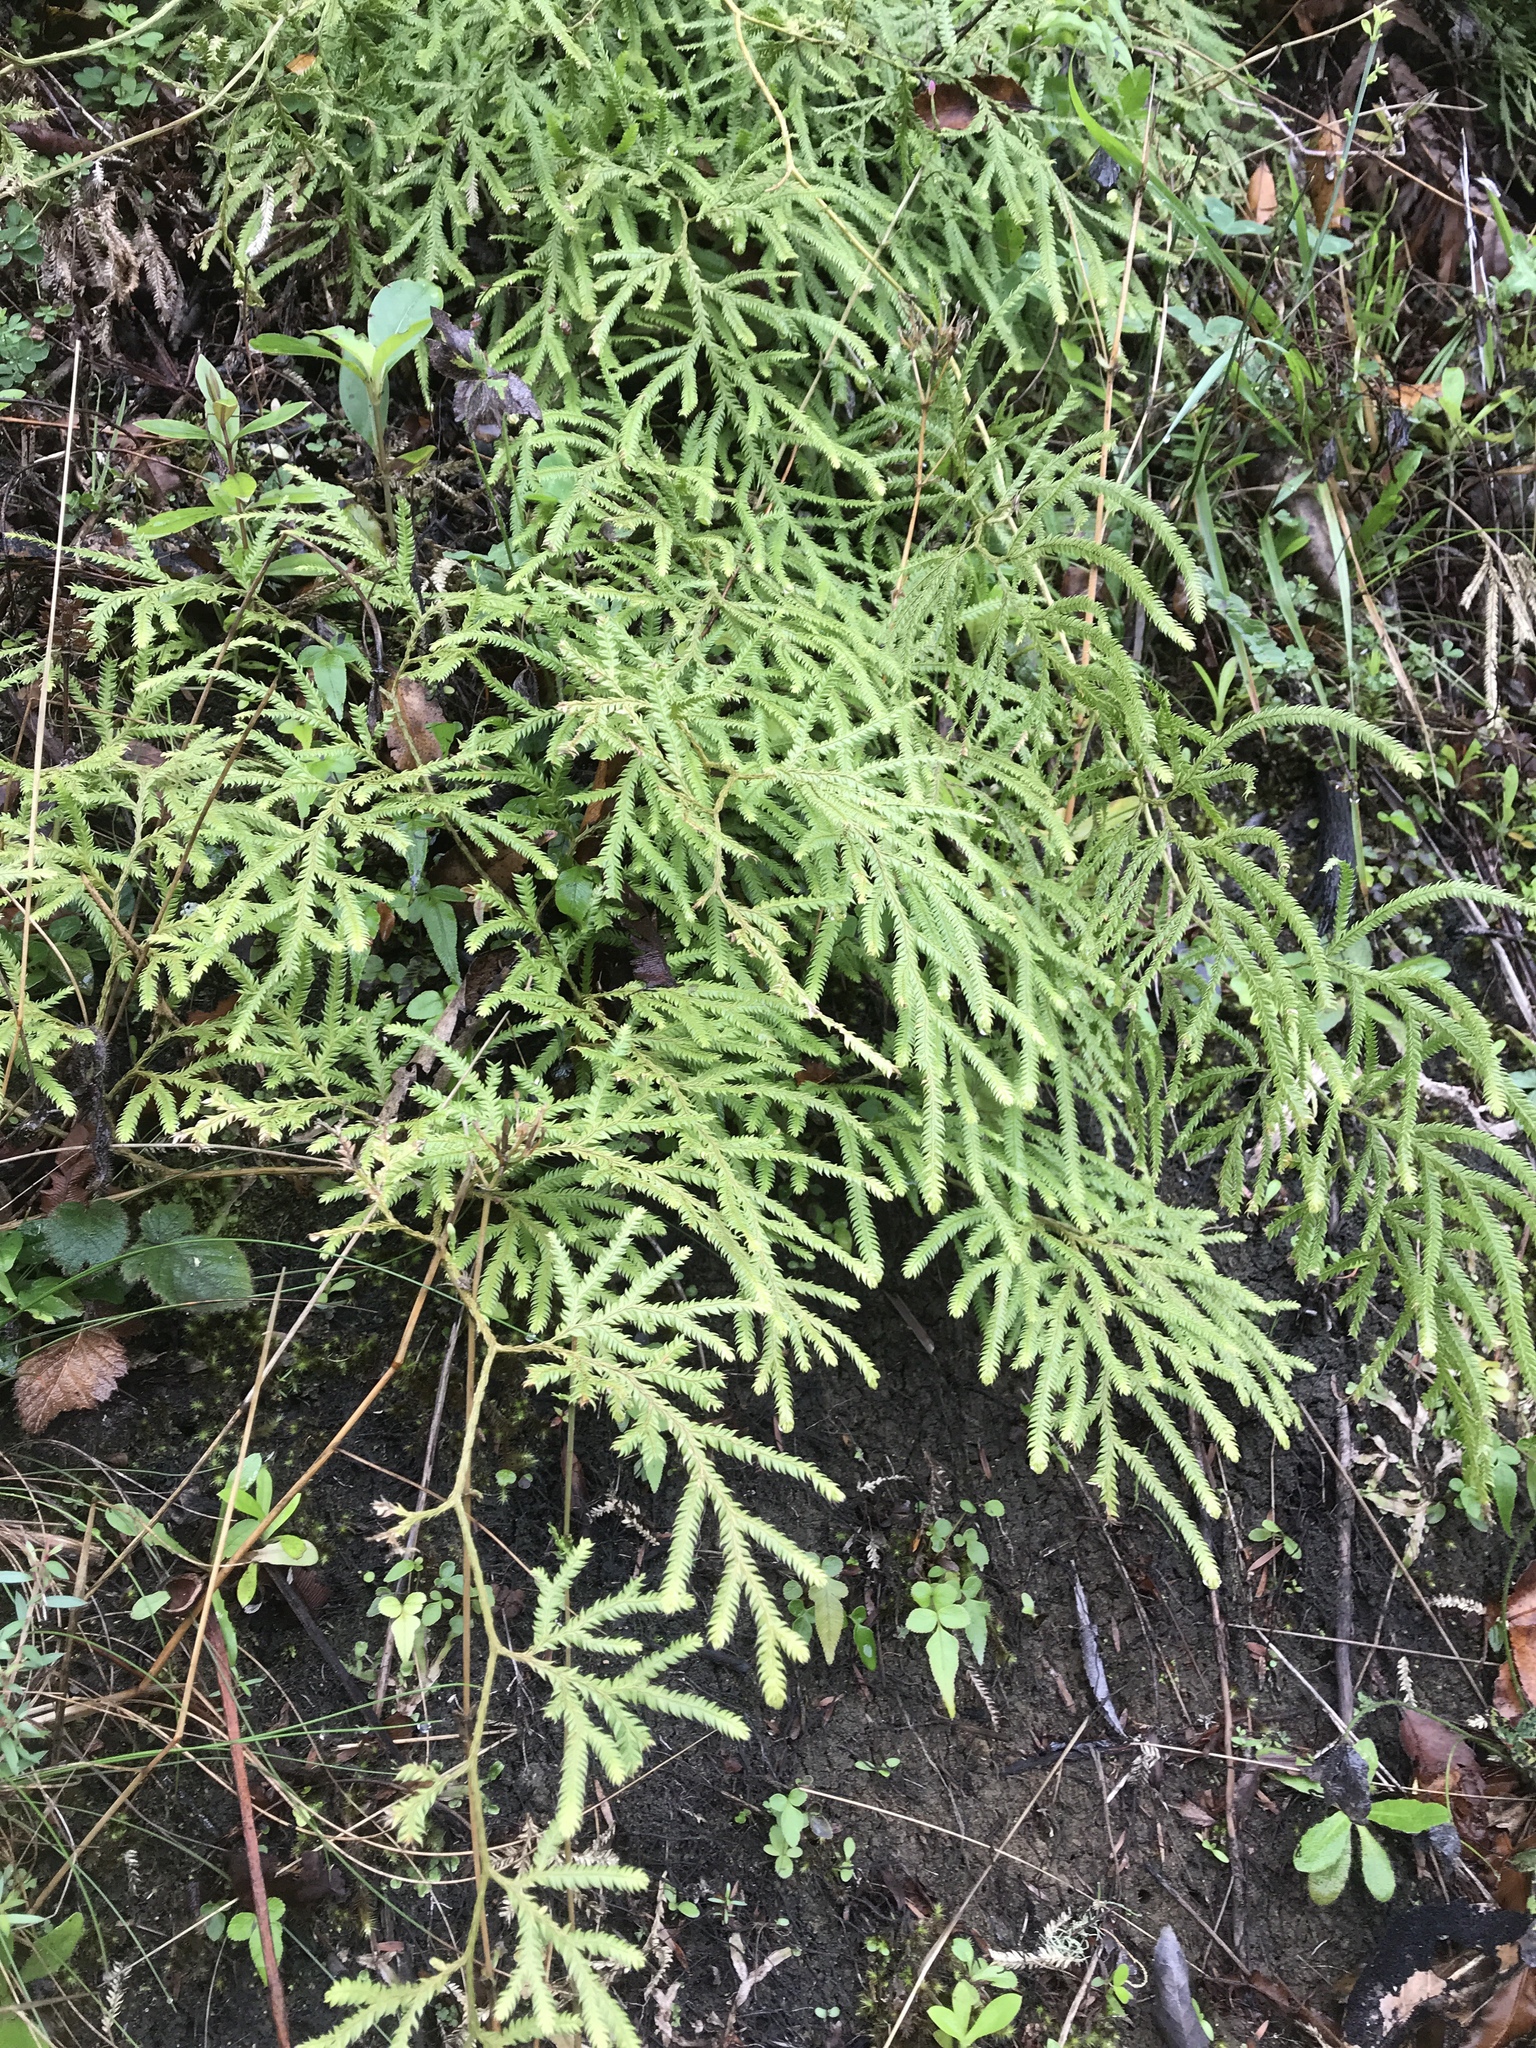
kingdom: Plantae
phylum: Tracheophyta
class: Lycopodiopsida
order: Lycopodiales
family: Lycopodiaceae
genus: Lycopodium
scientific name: Lycopodium volubile
